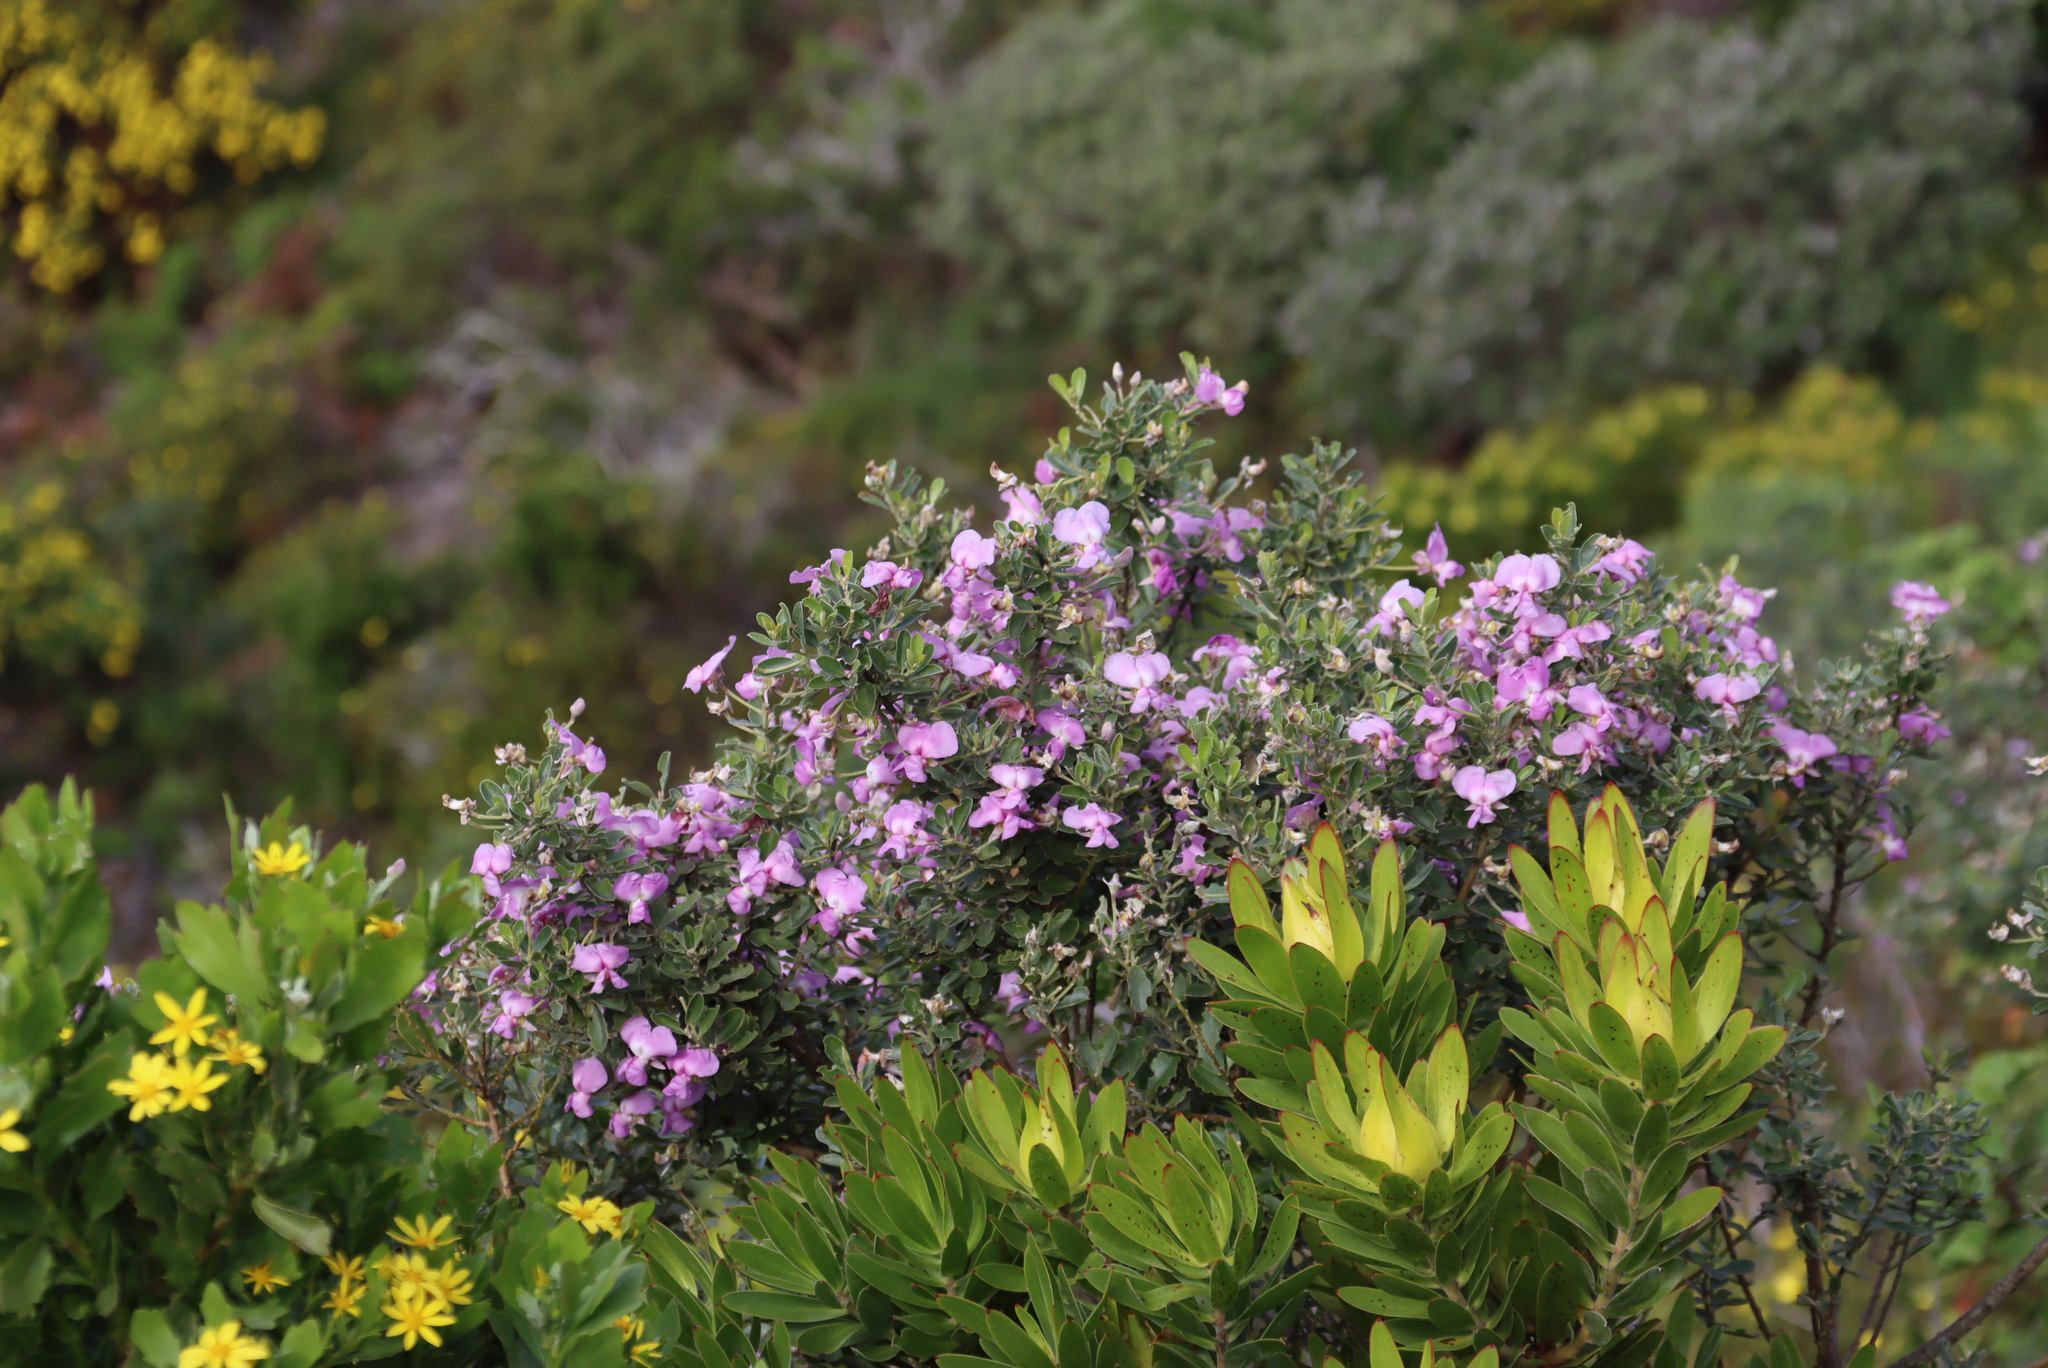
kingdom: Plantae
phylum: Tracheophyta
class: Magnoliopsida
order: Fabales
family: Fabaceae
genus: Podalyria
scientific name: Podalyria calyptrata
